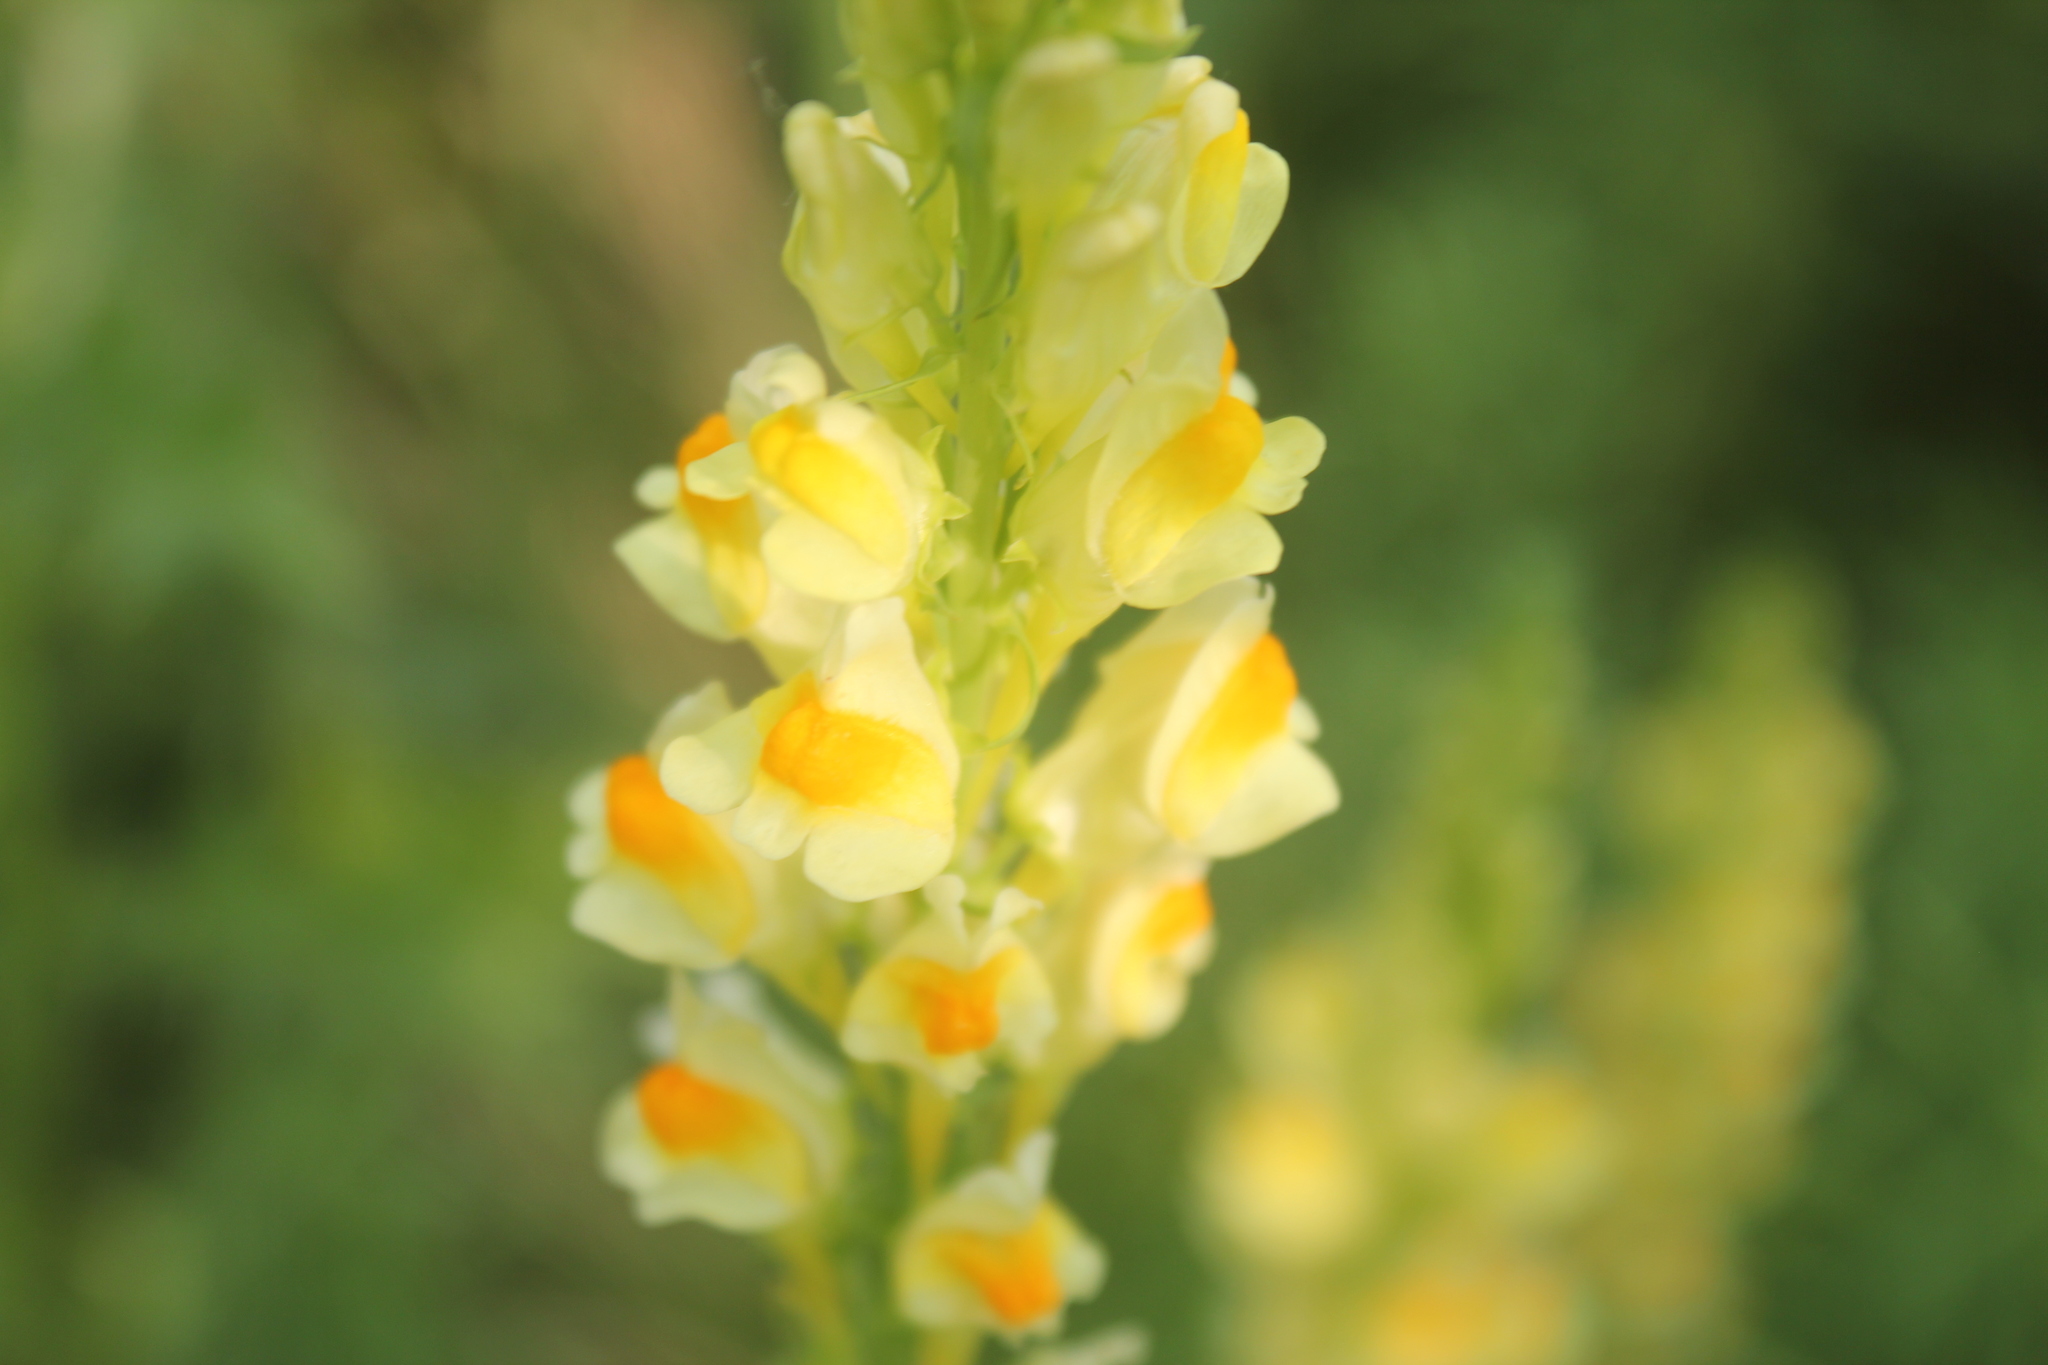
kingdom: Plantae
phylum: Tracheophyta
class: Magnoliopsida
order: Lamiales
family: Plantaginaceae
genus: Linaria
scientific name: Linaria vulgaris
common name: Butter and eggs
